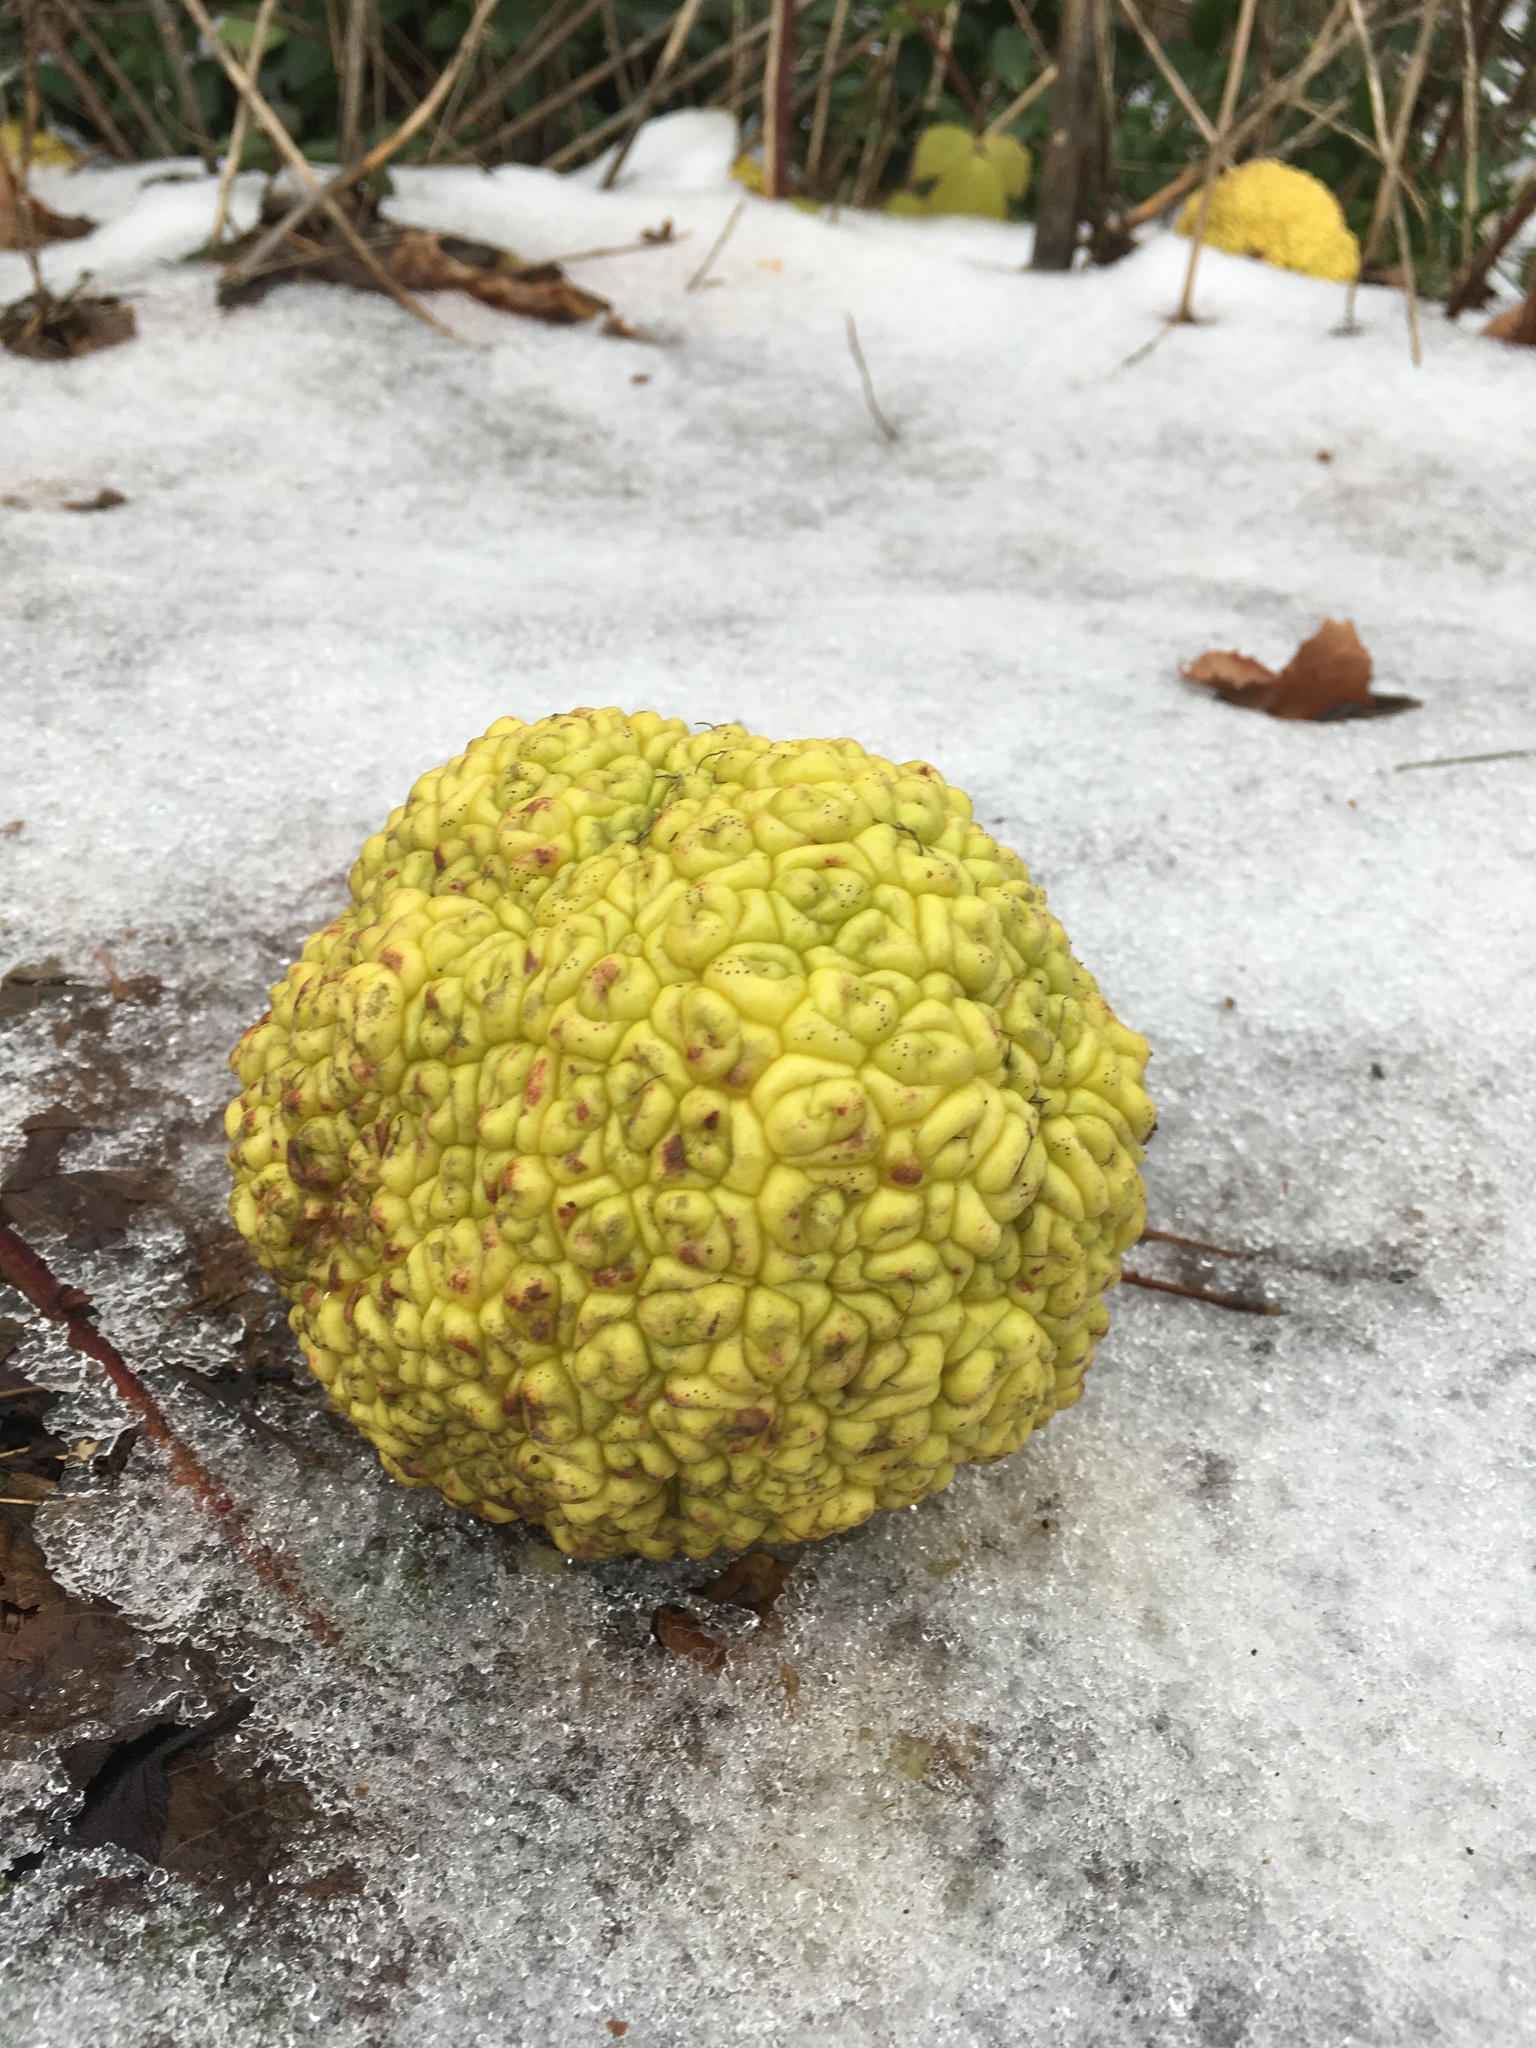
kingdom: Plantae
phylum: Tracheophyta
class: Magnoliopsida
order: Rosales
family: Moraceae
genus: Maclura
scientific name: Maclura pomifera
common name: Osage-orange
